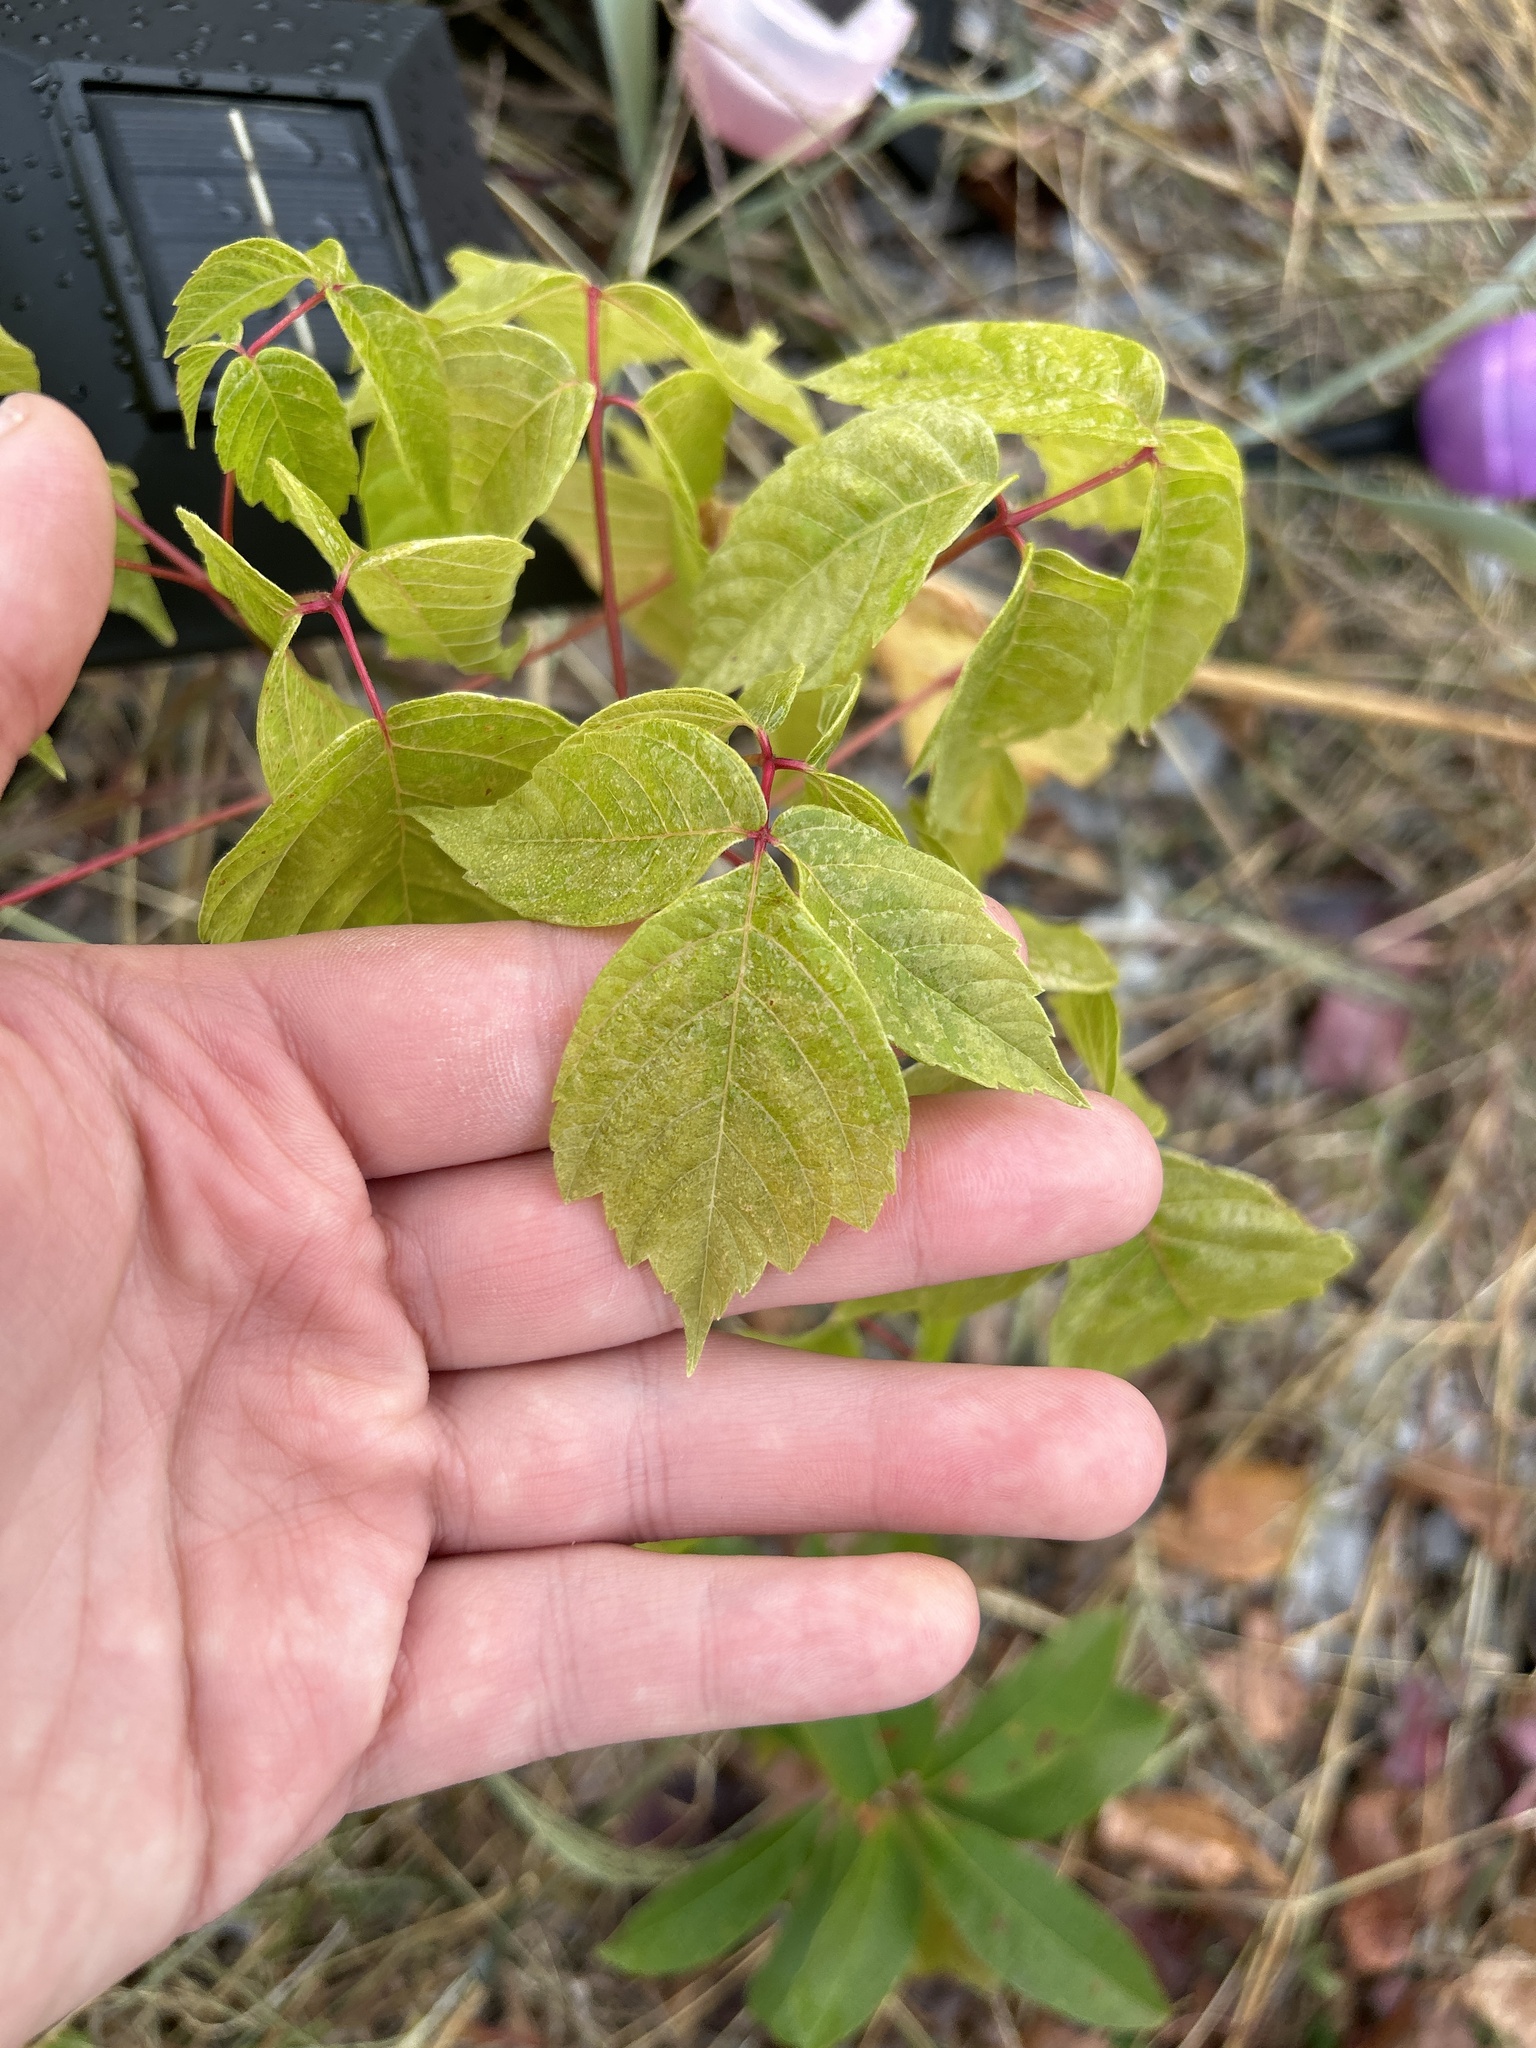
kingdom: Plantae
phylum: Tracheophyta
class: Magnoliopsida
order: Sapindales
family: Sapindaceae
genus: Acer
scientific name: Acer negundo
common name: Ashleaf maple
